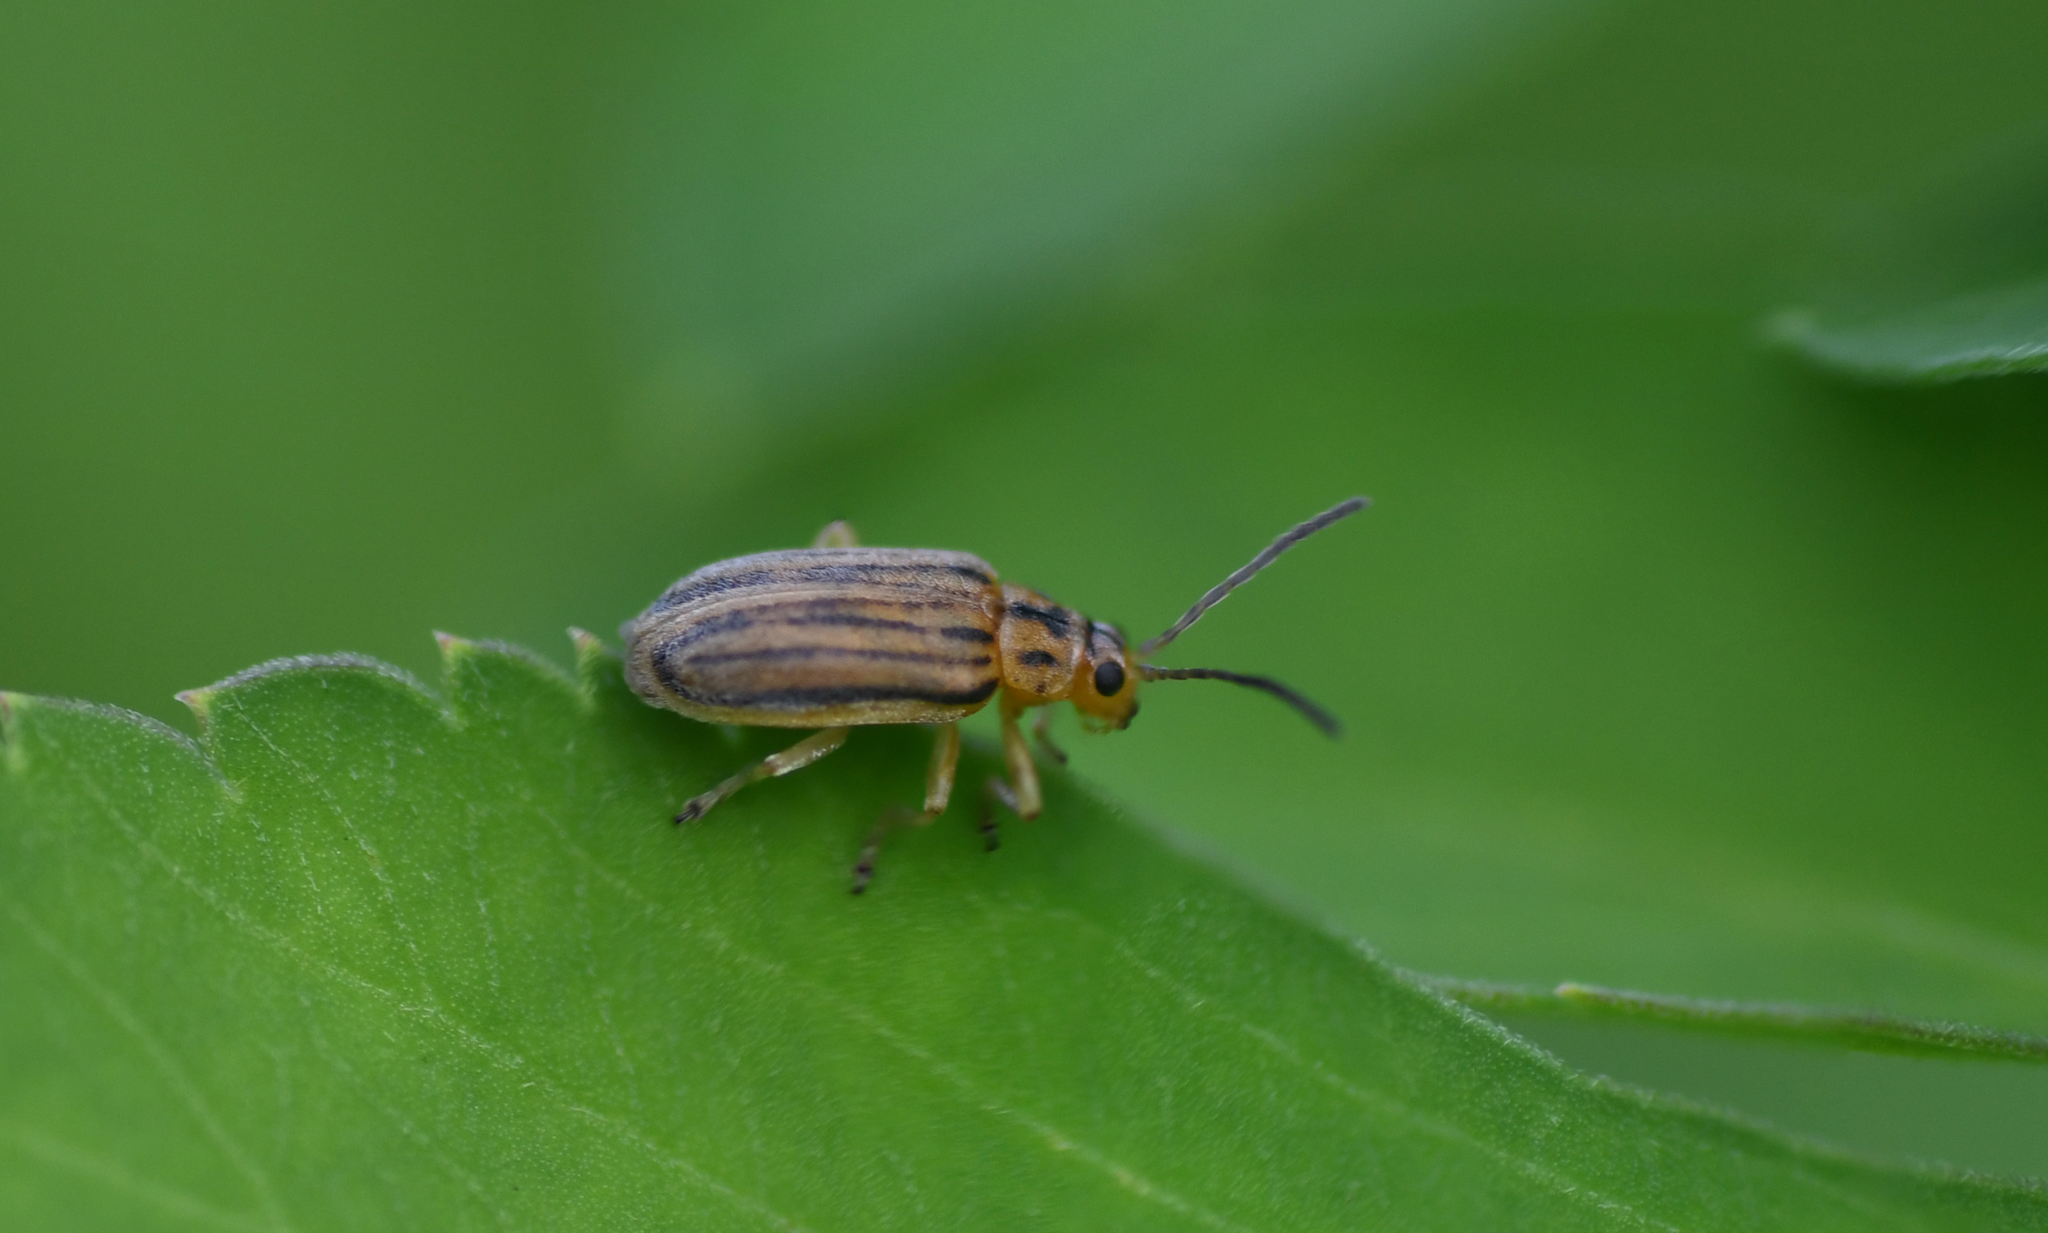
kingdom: Animalia
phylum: Arthropoda
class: Insecta
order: Coleoptera
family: Chrysomelidae
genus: Ophraella
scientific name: Ophraella slobodkini
